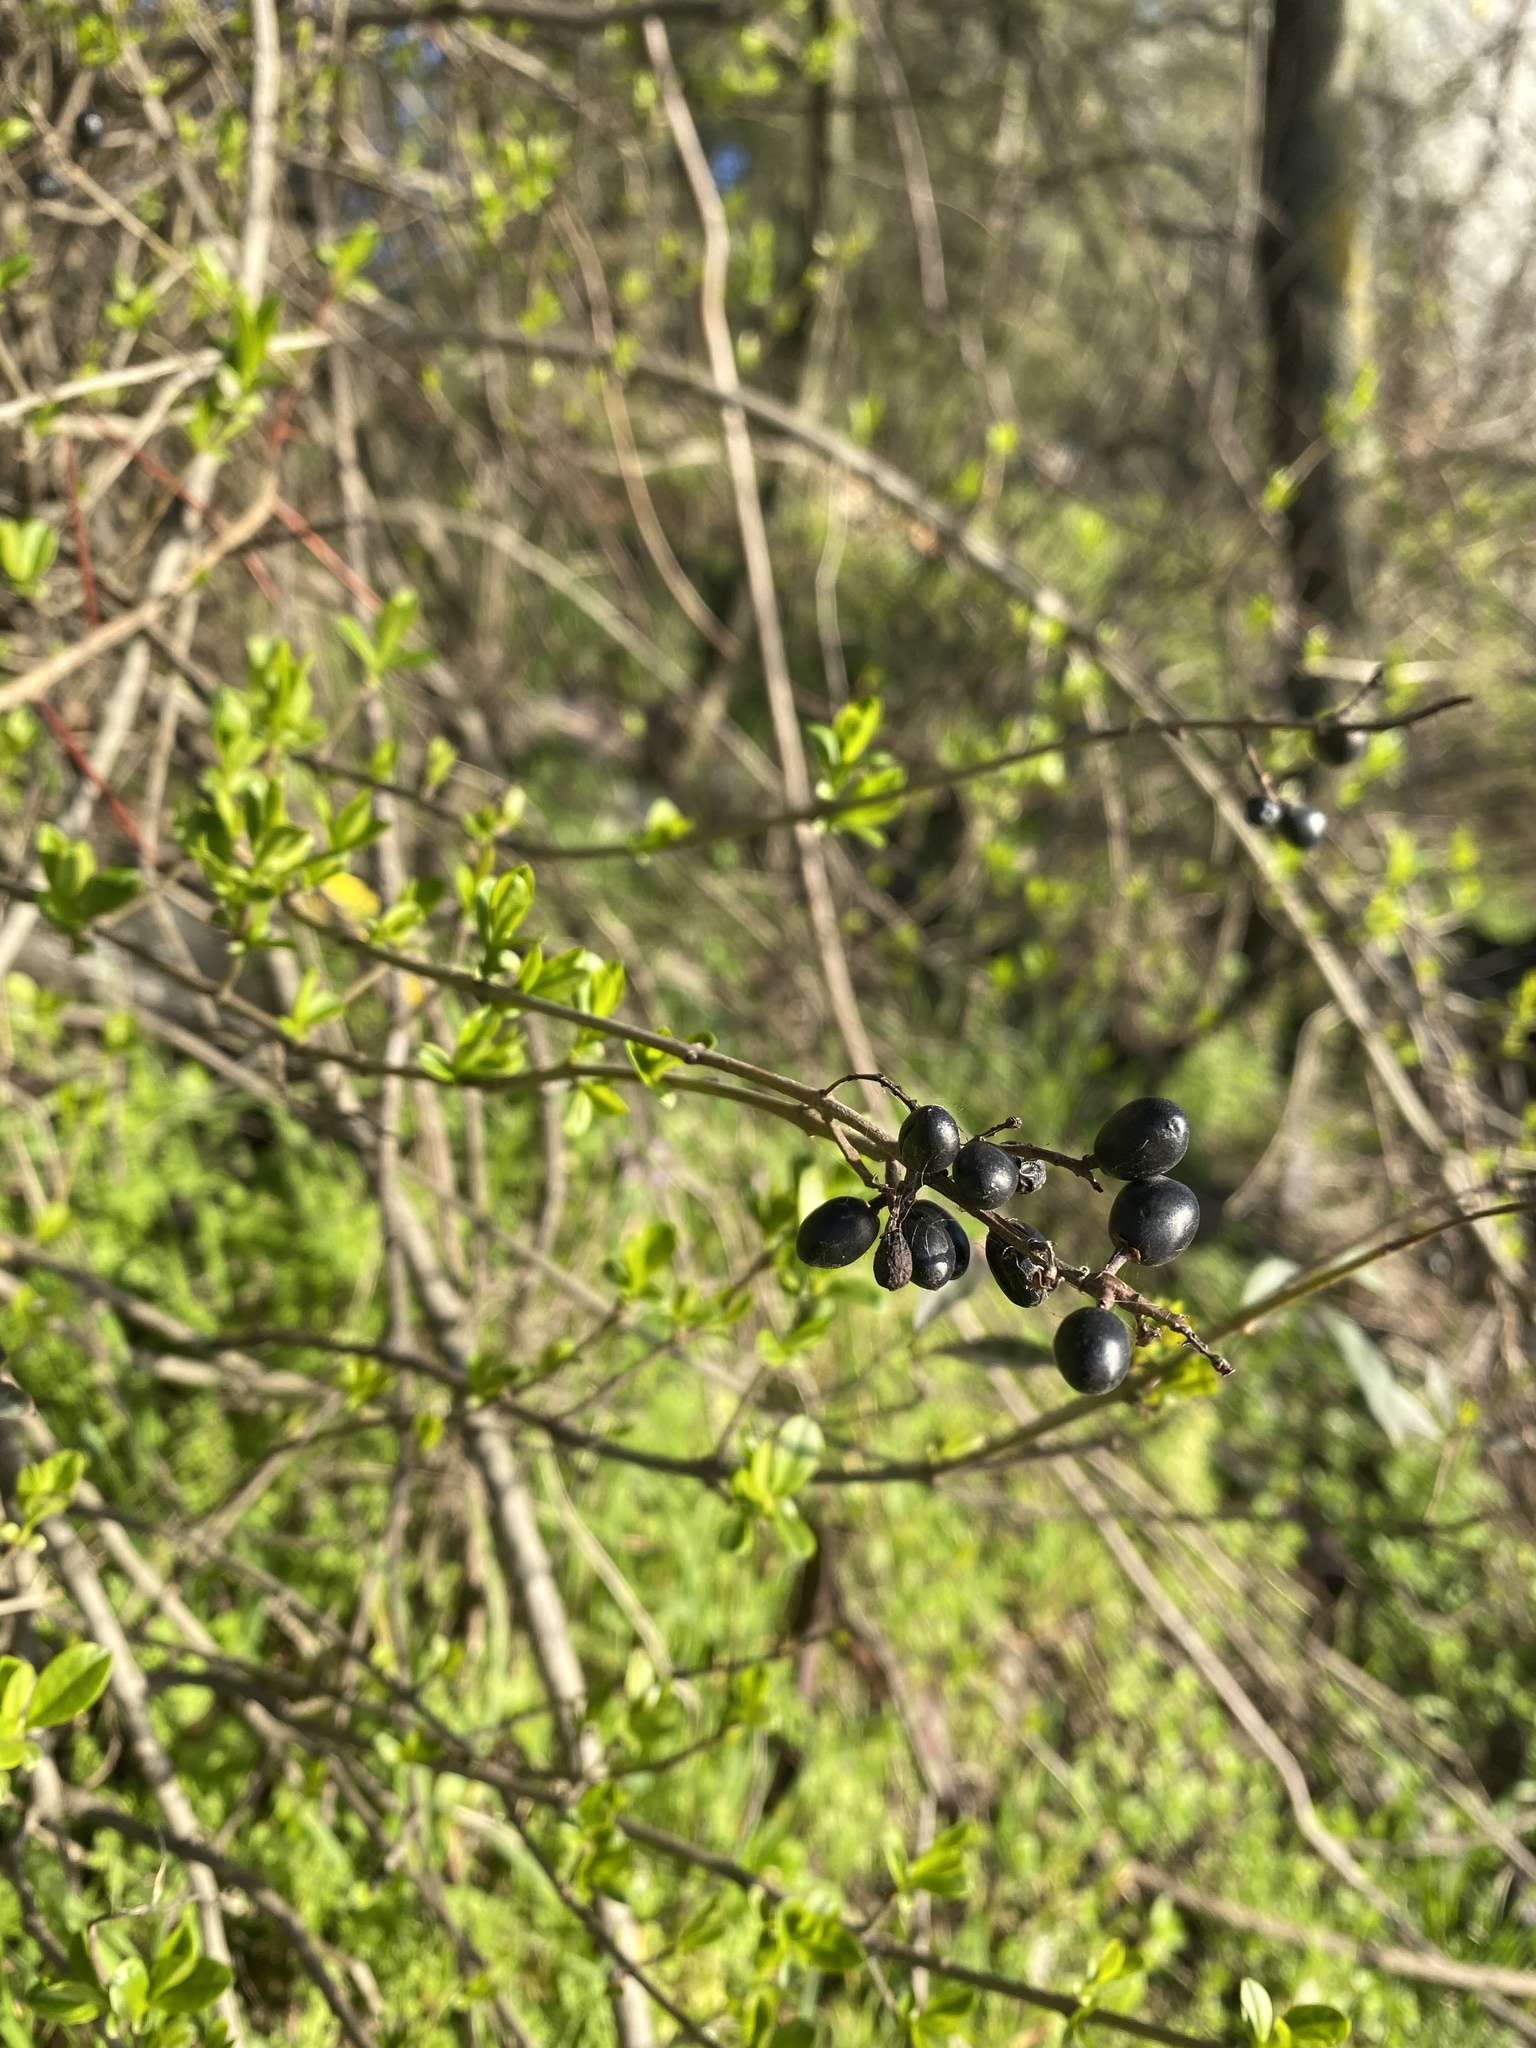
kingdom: Plantae
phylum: Tracheophyta
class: Magnoliopsida
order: Lamiales
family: Oleaceae
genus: Ligustrum
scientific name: Ligustrum vulgare
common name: Wild privet
